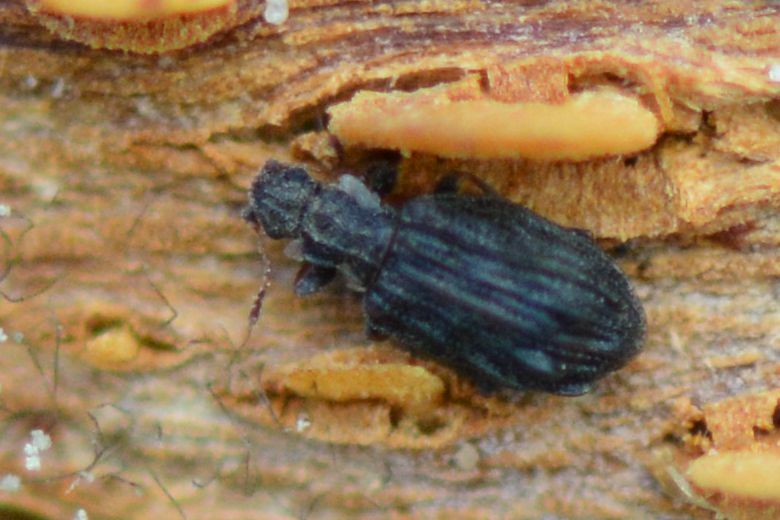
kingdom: Animalia
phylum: Arthropoda
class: Insecta
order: Coleoptera
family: Latridiidae
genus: Cartodere
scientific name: Cartodere nodifer
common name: Humpbacked minute scavenger beetle
